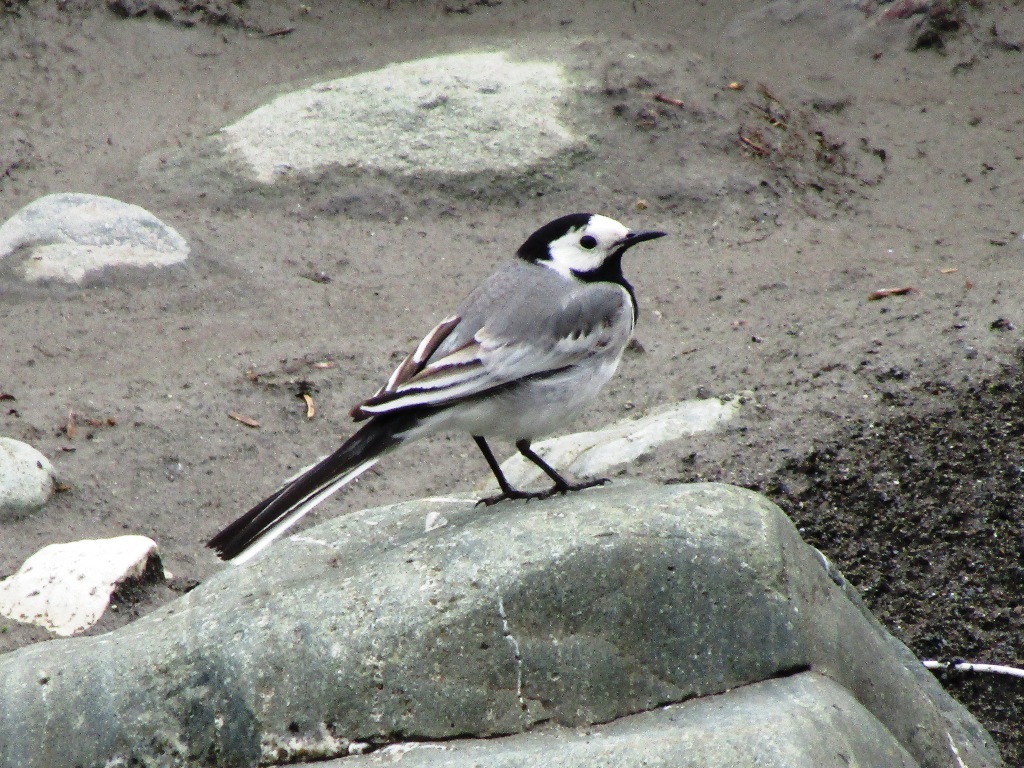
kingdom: Animalia
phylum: Chordata
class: Aves
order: Passeriformes
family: Motacillidae
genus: Motacilla
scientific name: Motacilla alba
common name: White wagtail
